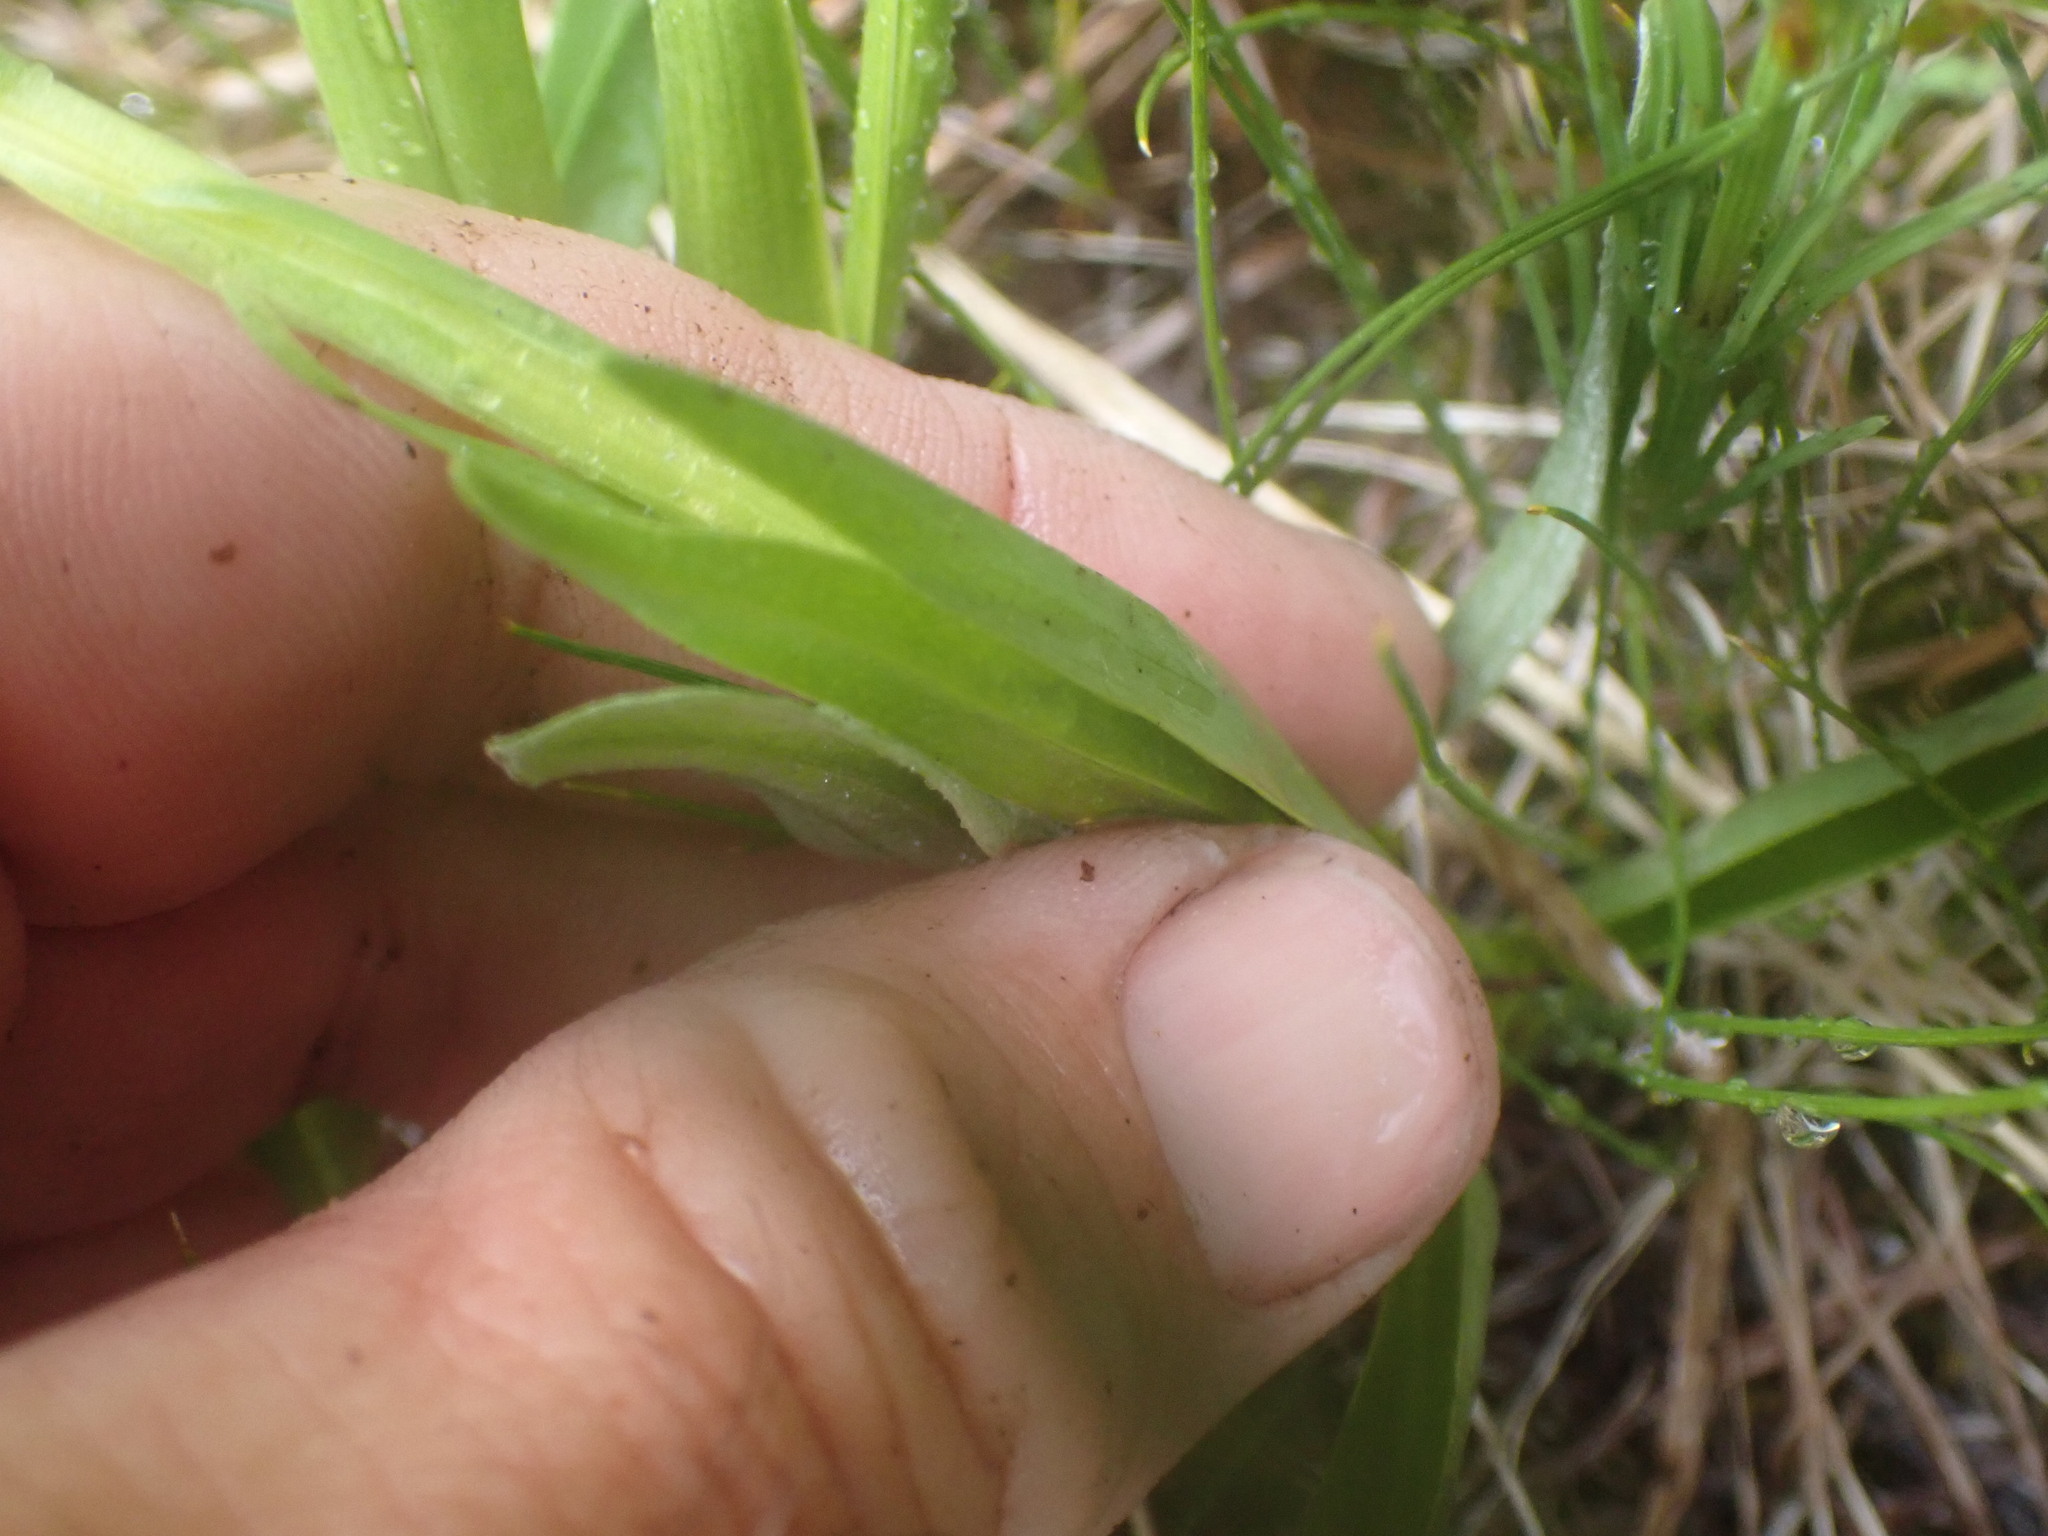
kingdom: Plantae
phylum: Tracheophyta
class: Liliopsida
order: Asparagales
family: Orchidaceae
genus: Platanthera
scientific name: Platanthera huronensis
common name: Fragrant green orchid
